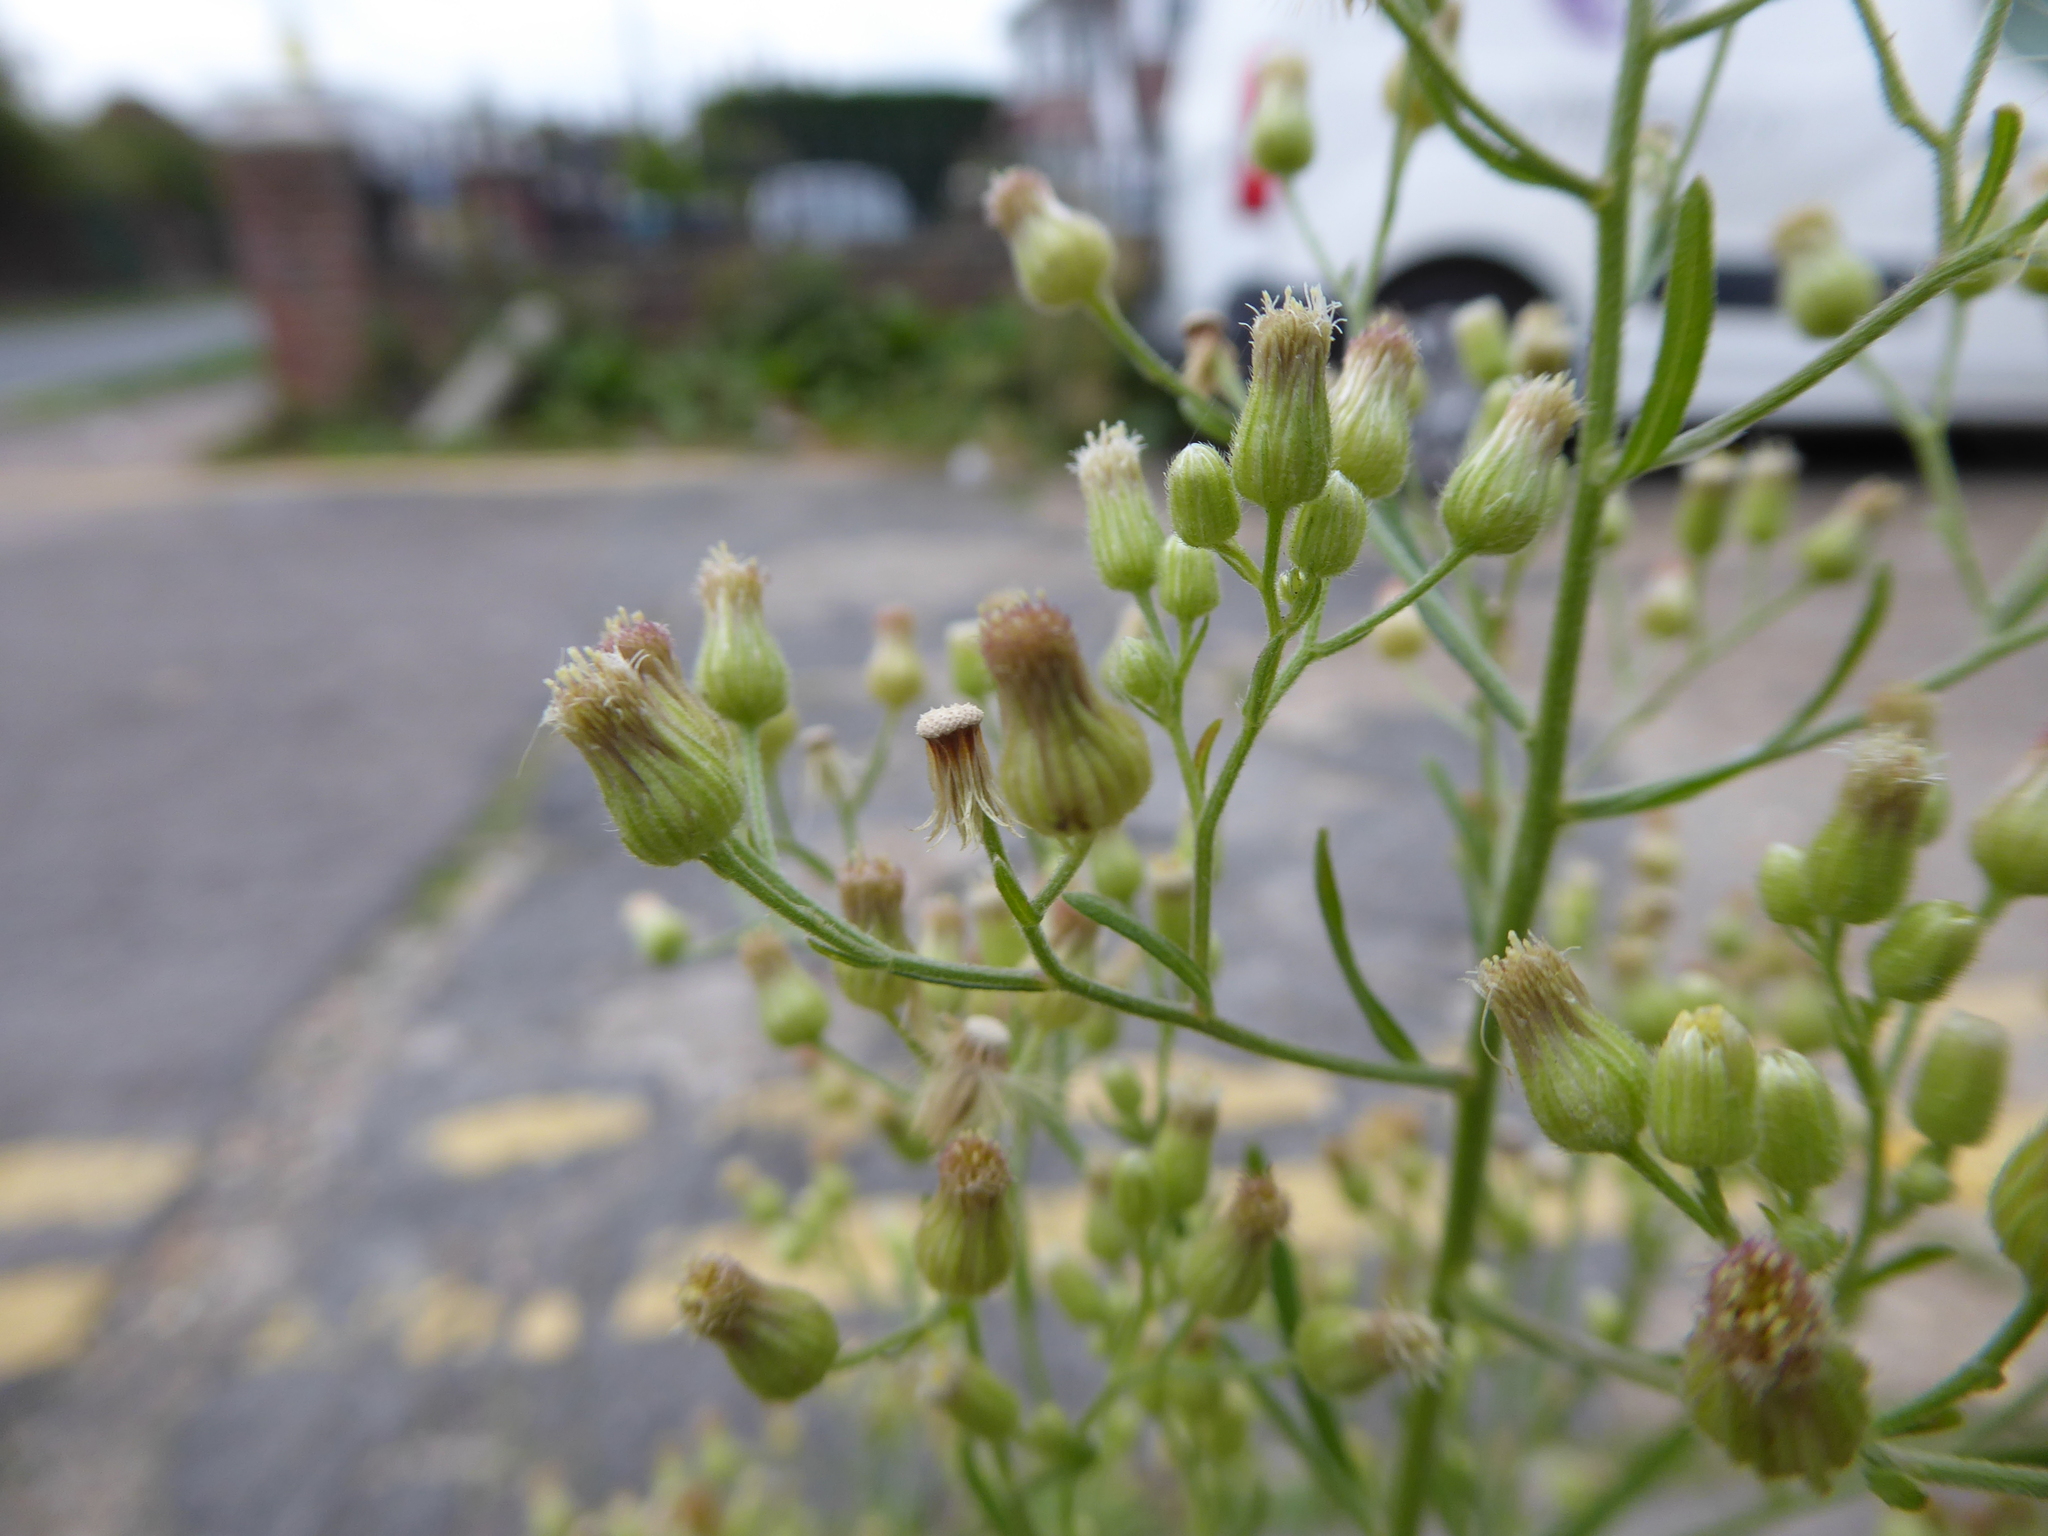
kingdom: Plantae
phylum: Tracheophyta
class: Magnoliopsida
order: Asterales
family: Asteraceae
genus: Erigeron
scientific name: Erigeron sumatrensis
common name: Daisy
